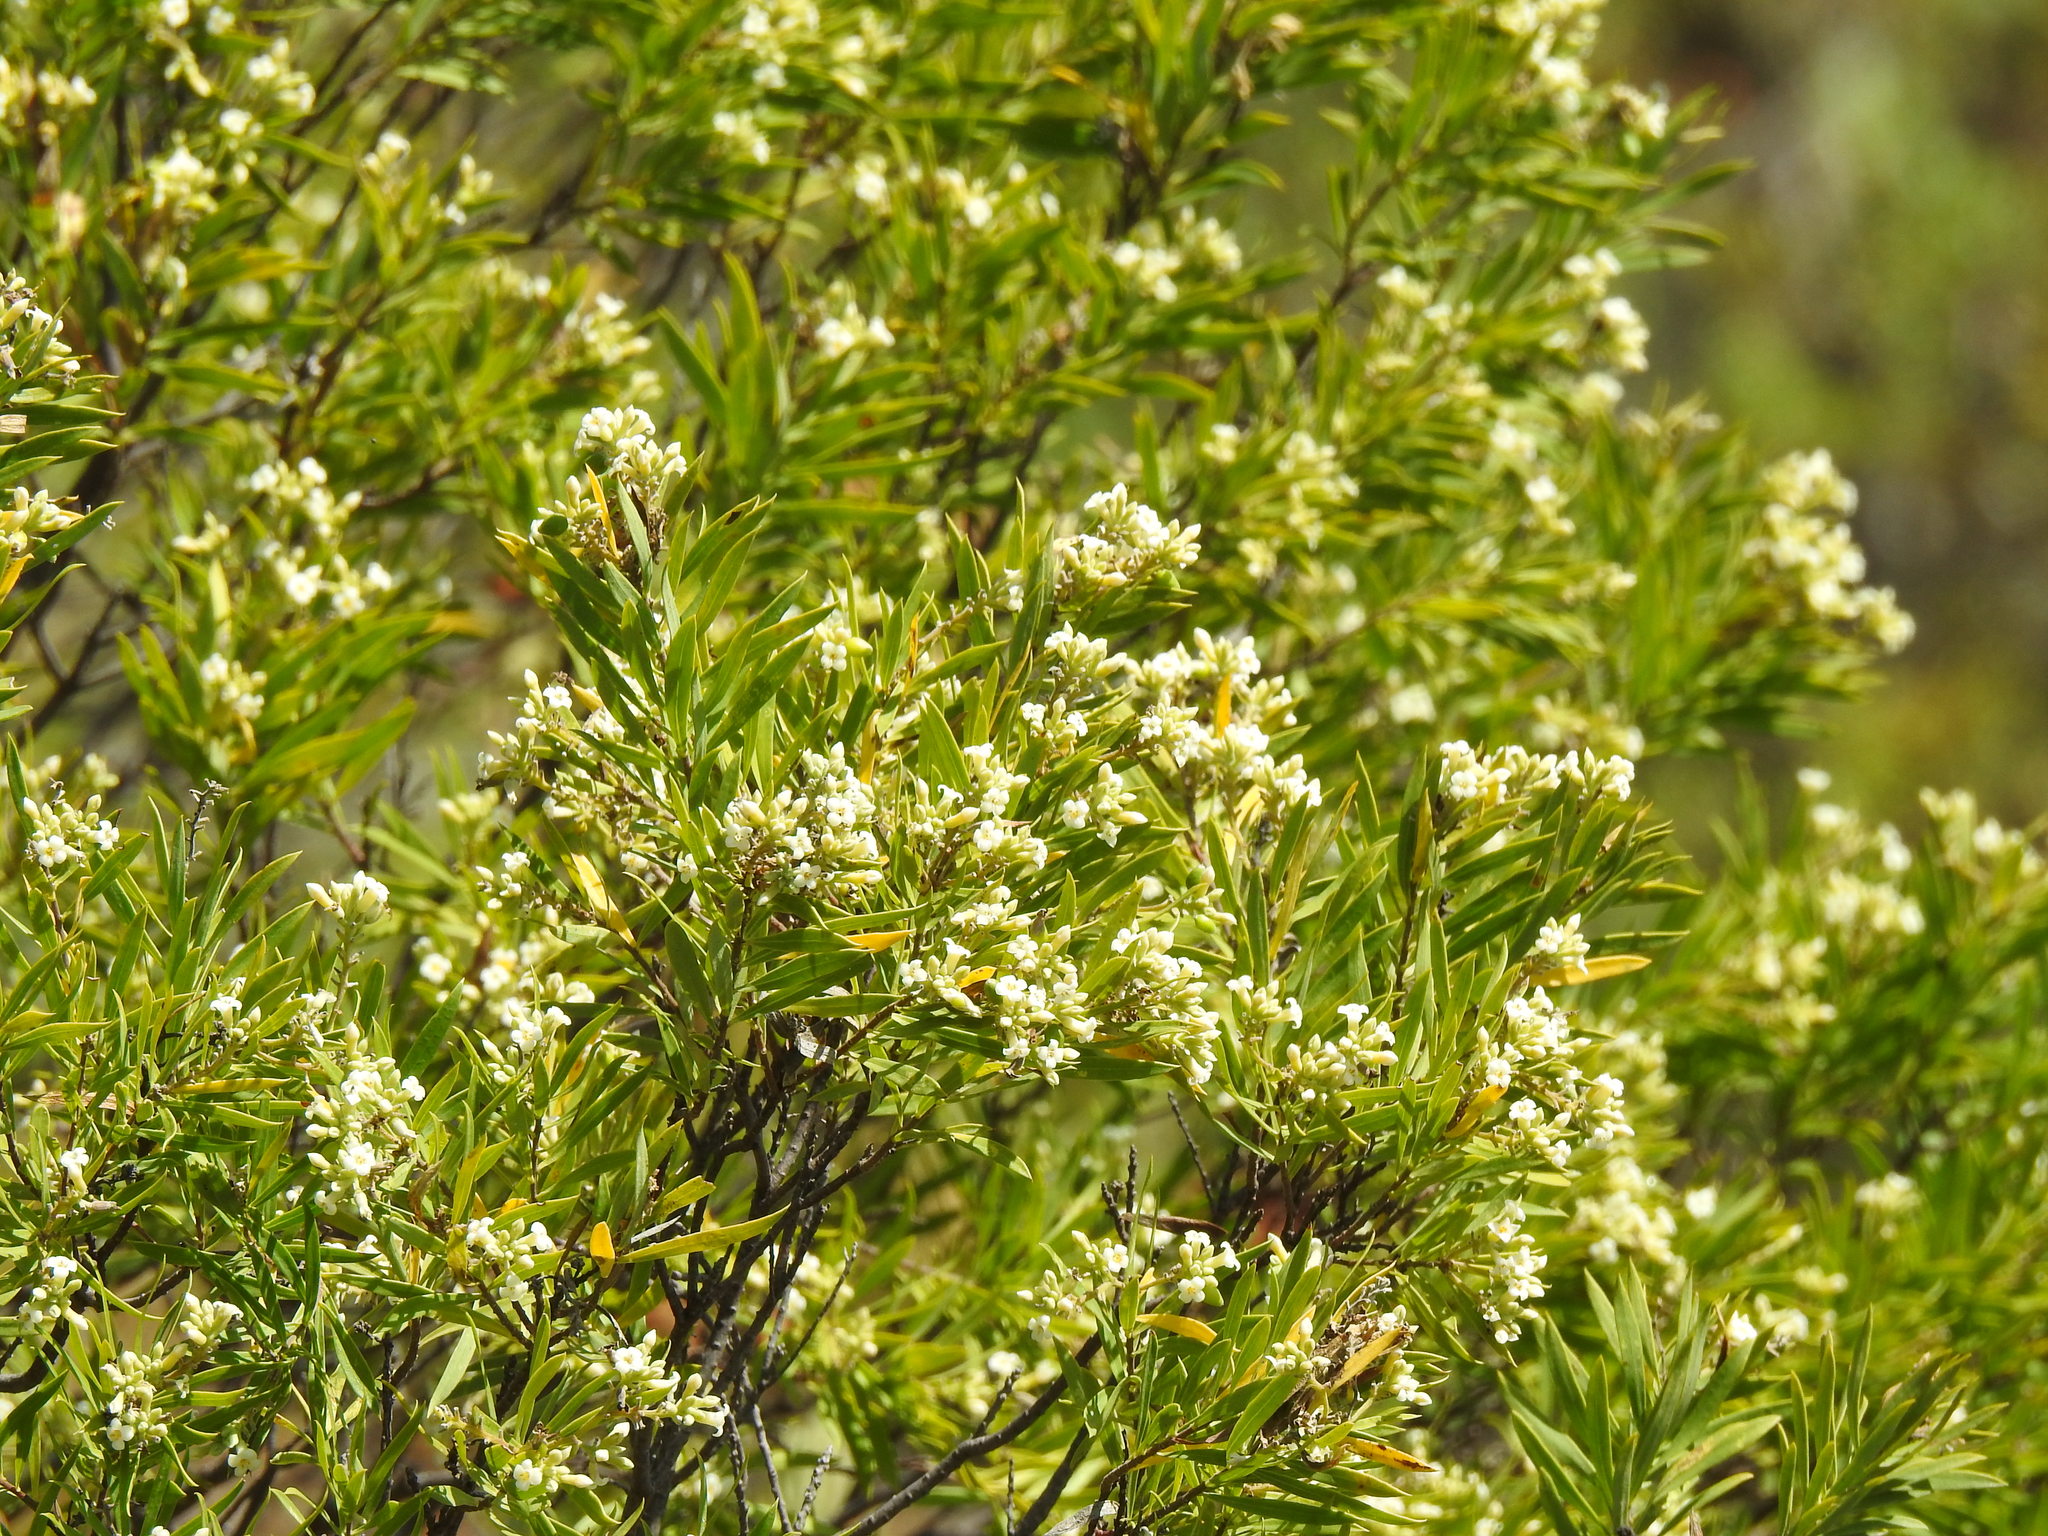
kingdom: Plantae
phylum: Tracheophyta
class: Magnoliopsida
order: Malvales
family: Thymelaeaceae
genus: Daphne
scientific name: Daphne gnidium
